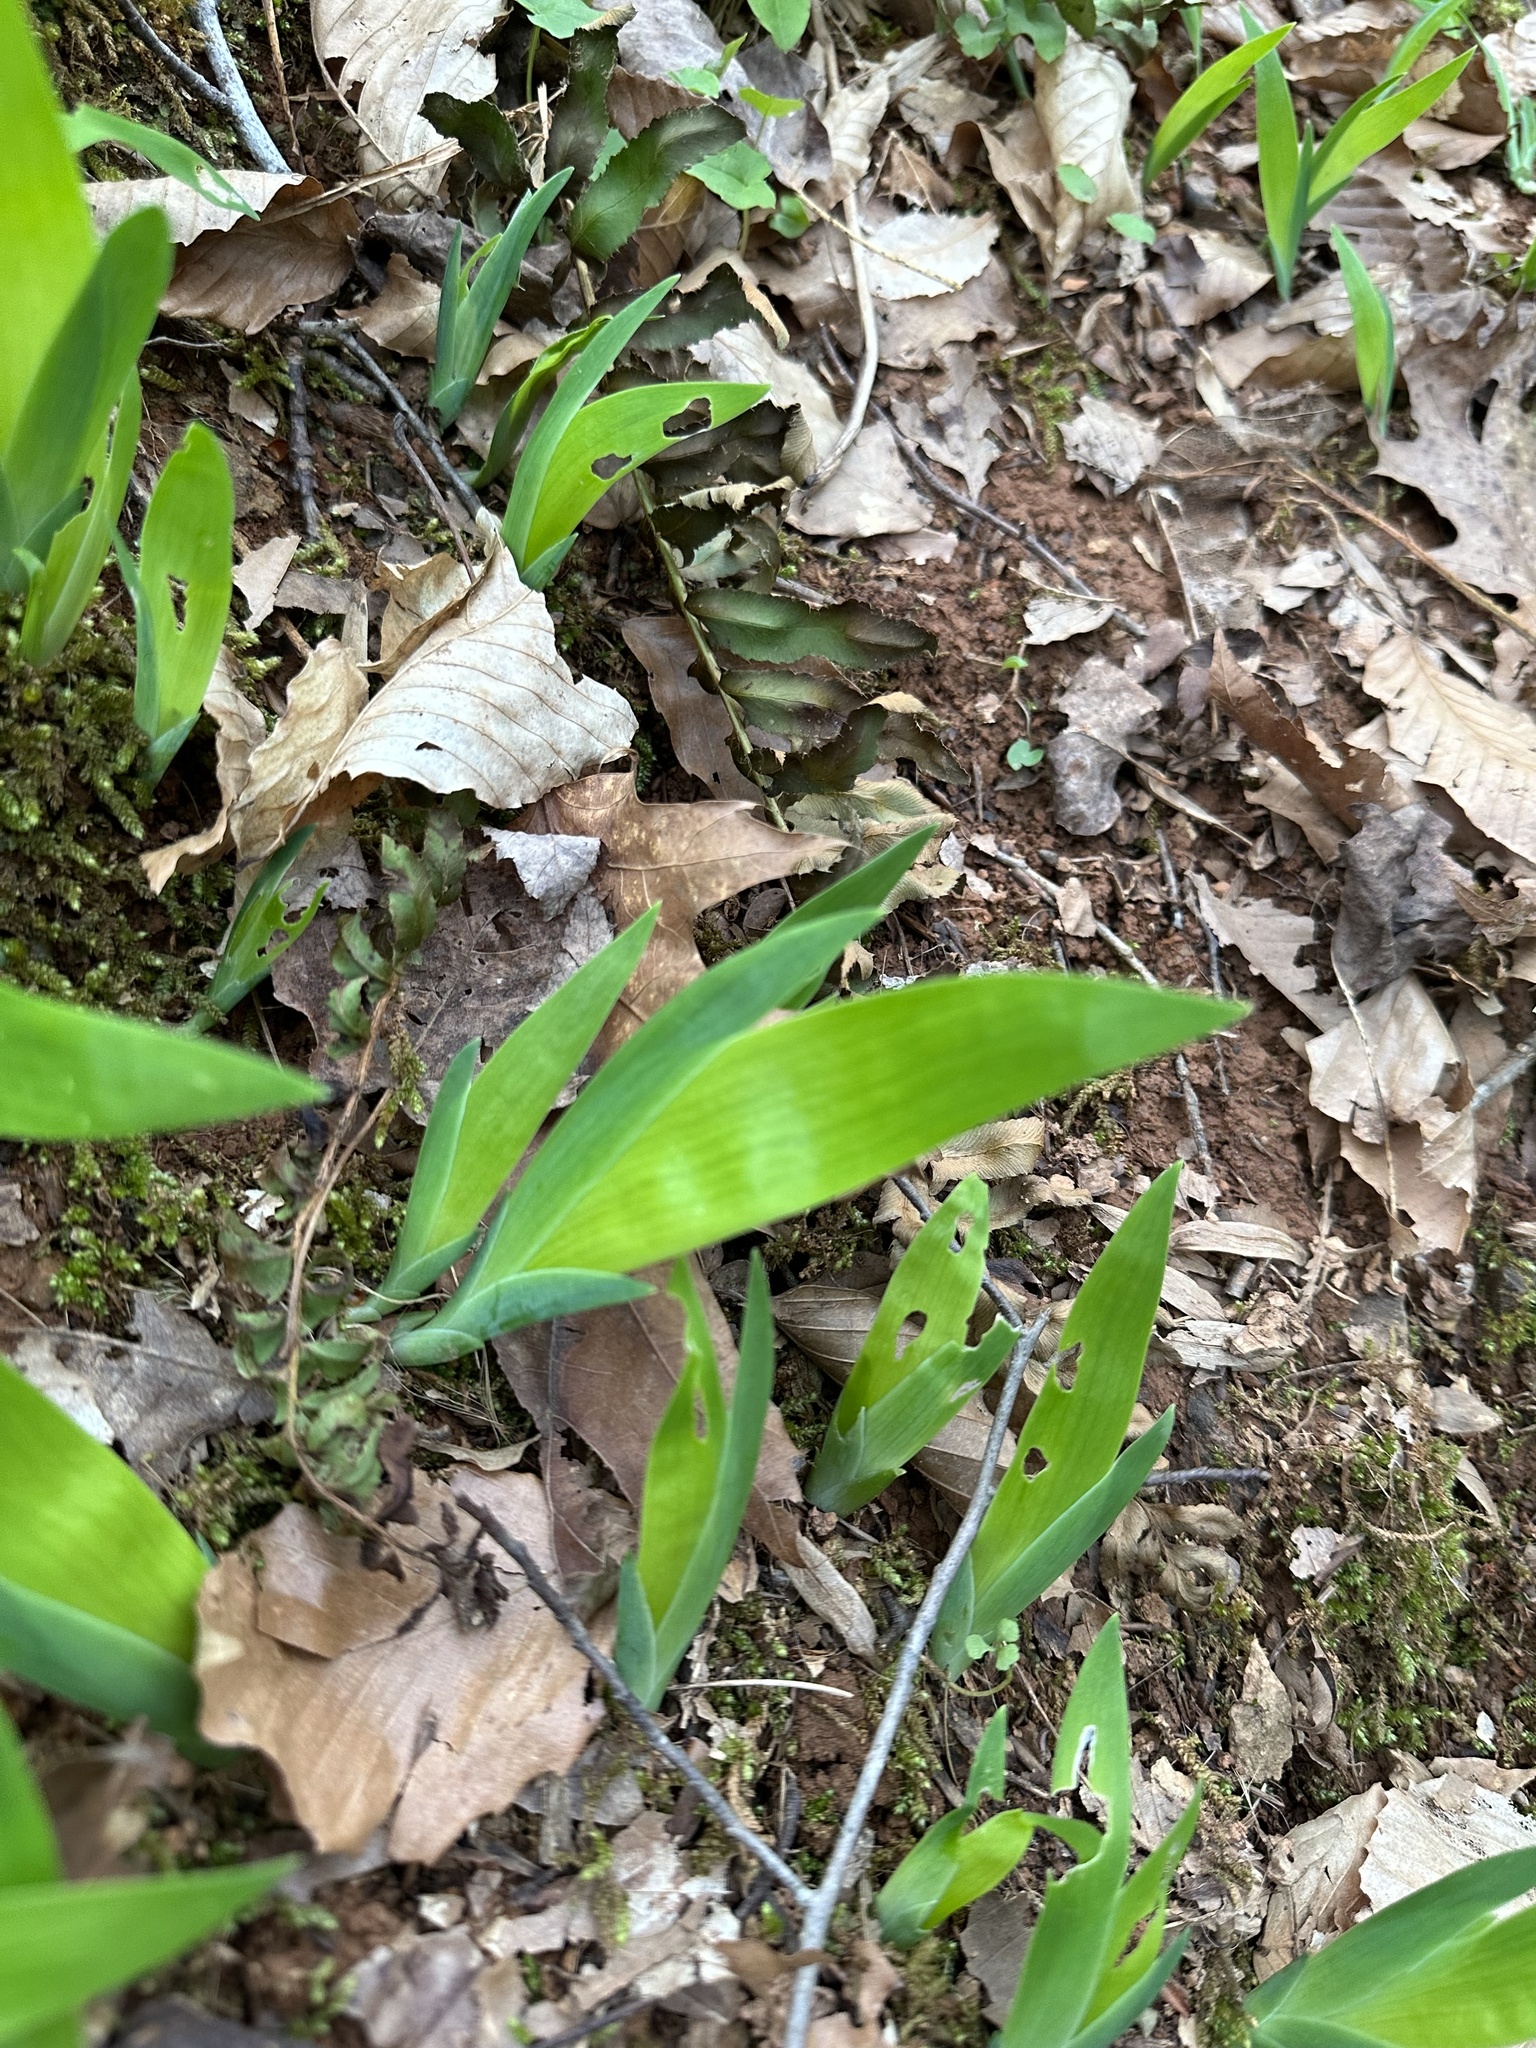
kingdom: Plantae
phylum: Tracheophyta
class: Liliopsida
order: Asparagales
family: Iridaceae
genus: Iris
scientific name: Iris cristata
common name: Crested iris
